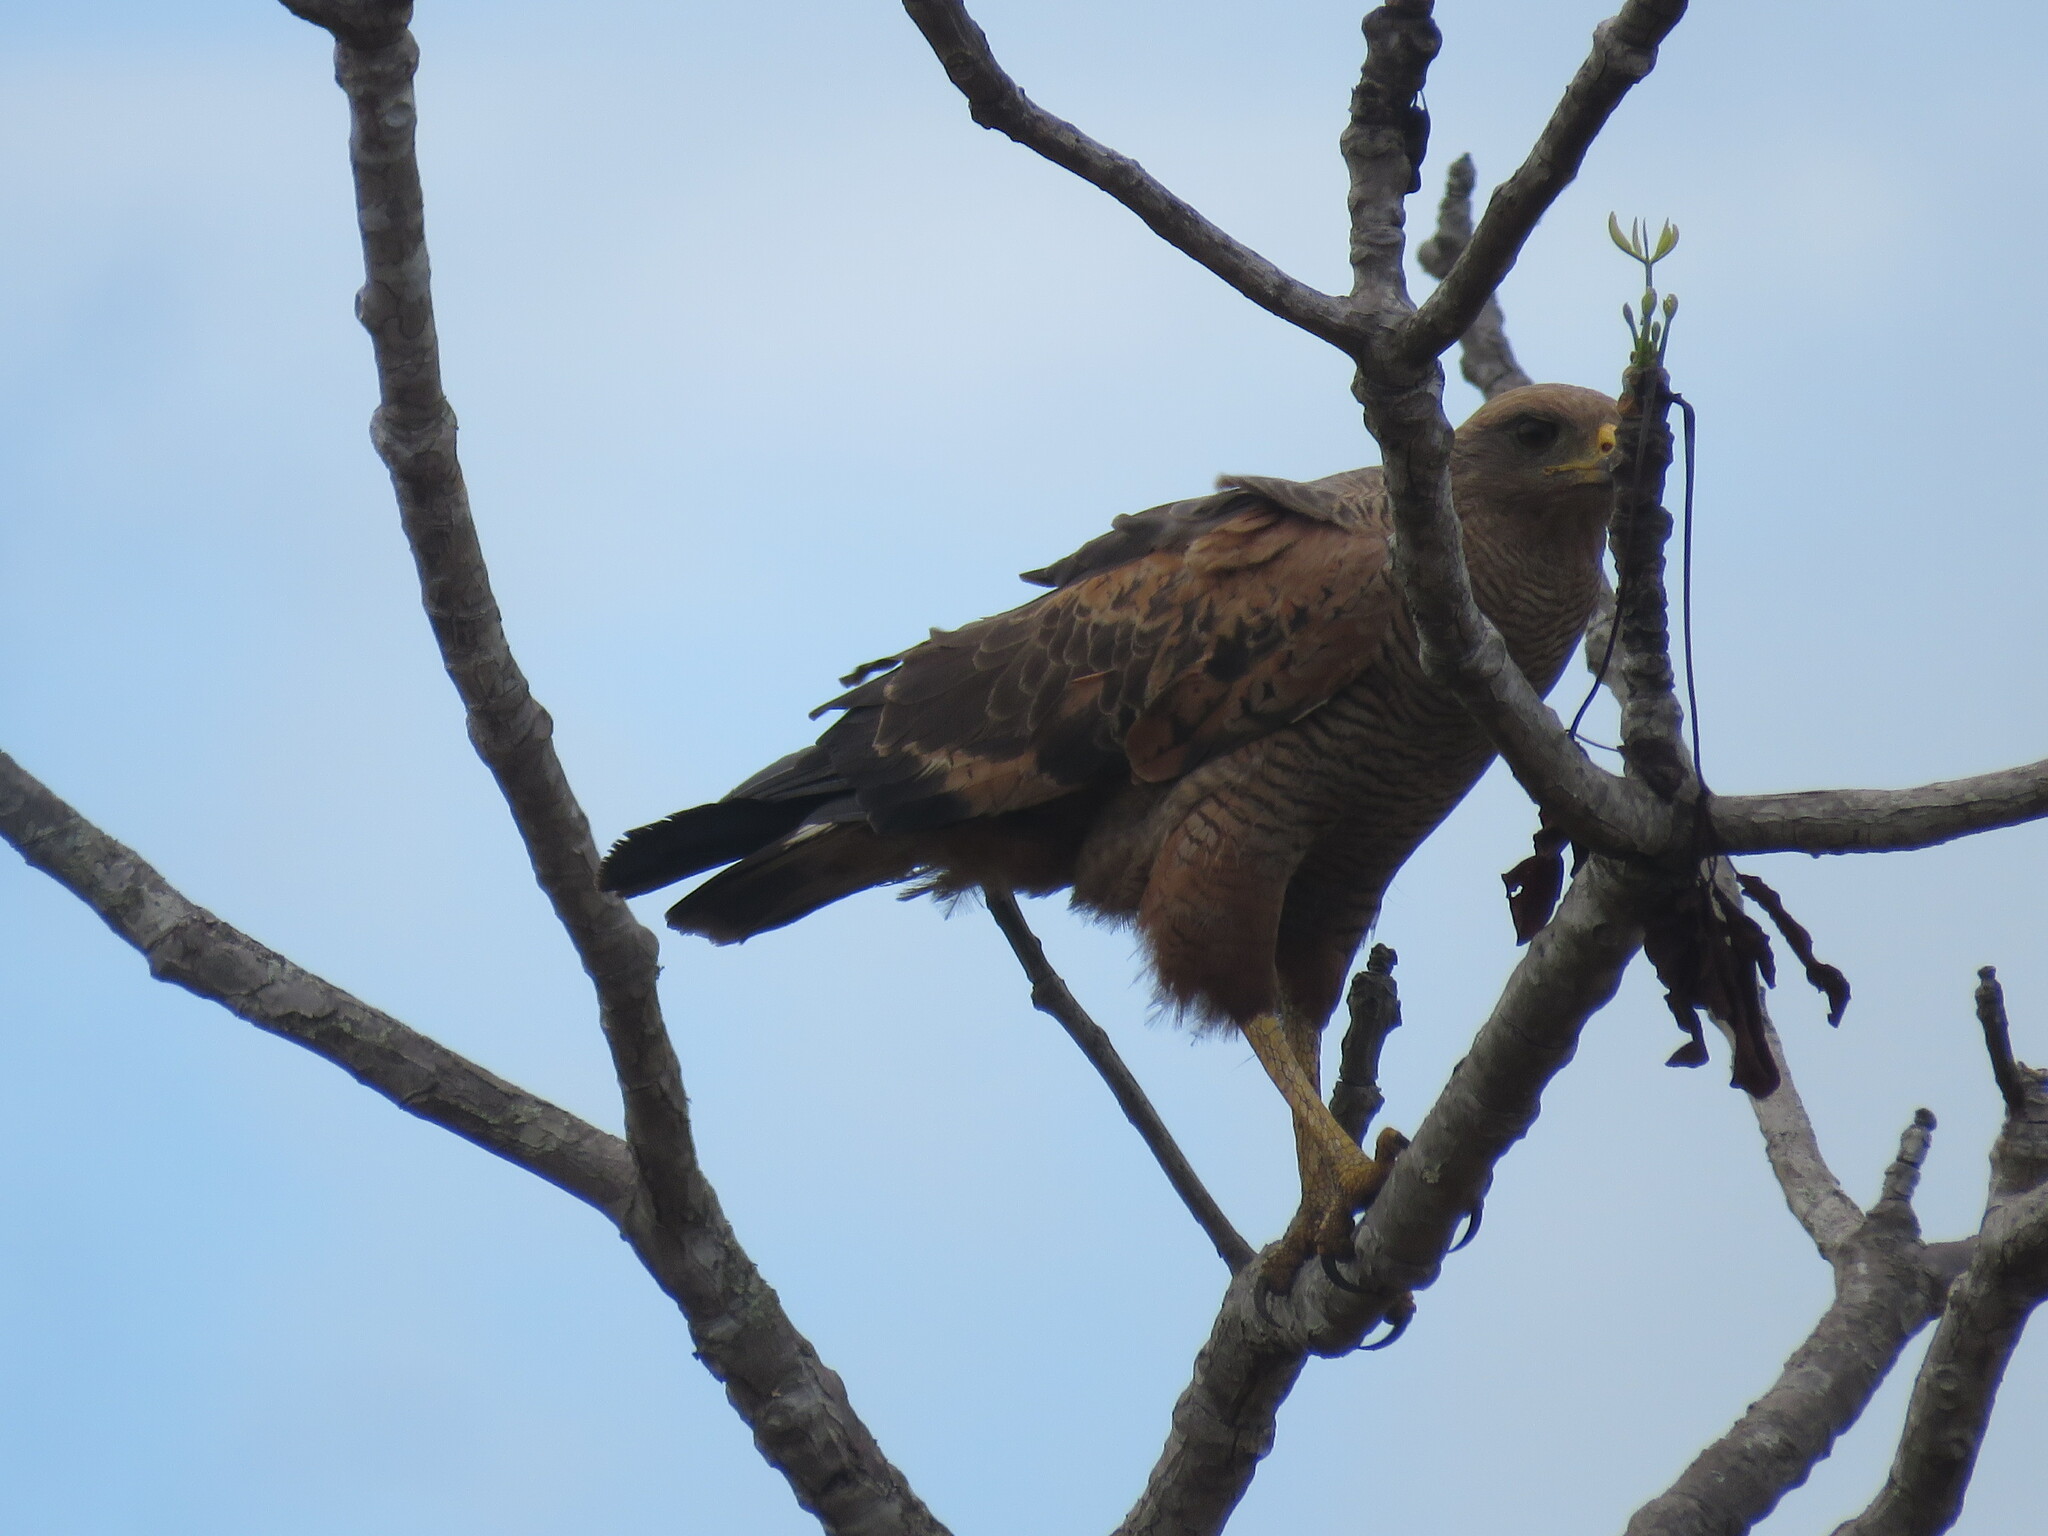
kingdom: Animalia
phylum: Chordata
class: Aves
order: Accipitriformes
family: Accipitridae
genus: Buteogallus
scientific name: Buteogallus meridionalis
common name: Savanna hawk
